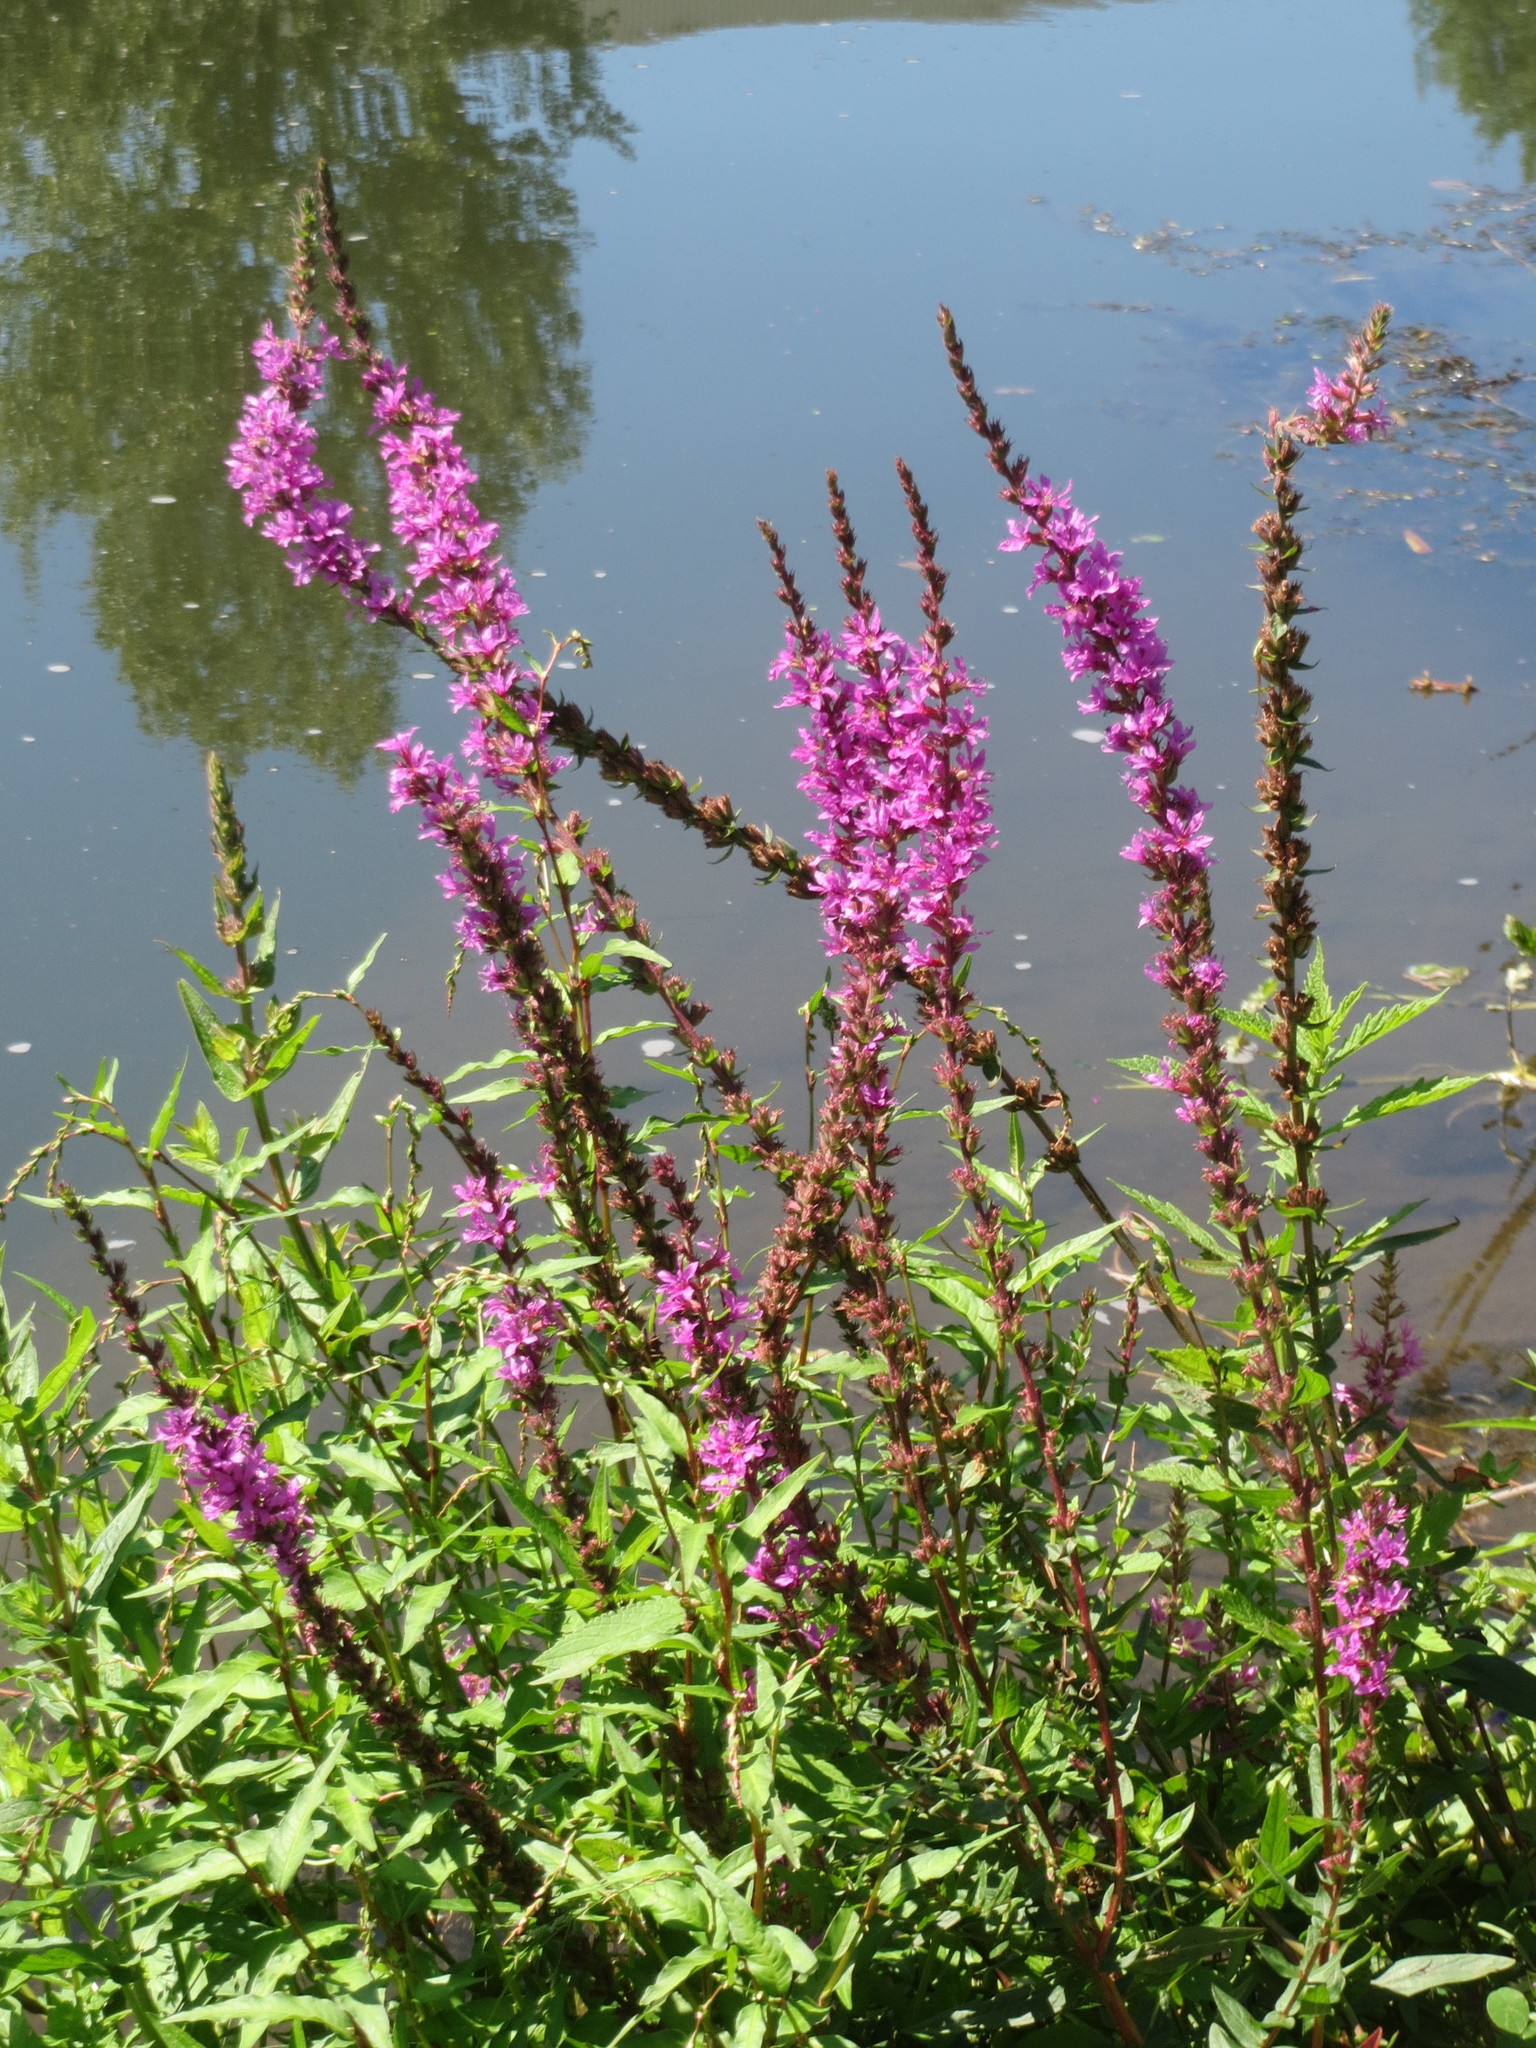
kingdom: Plantae
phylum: Tracheophyta
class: Magnoliopsida
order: Myrtales
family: Lythraceae
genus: Lythrum
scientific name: Lythrum salicaria
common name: Purple loosestrife
